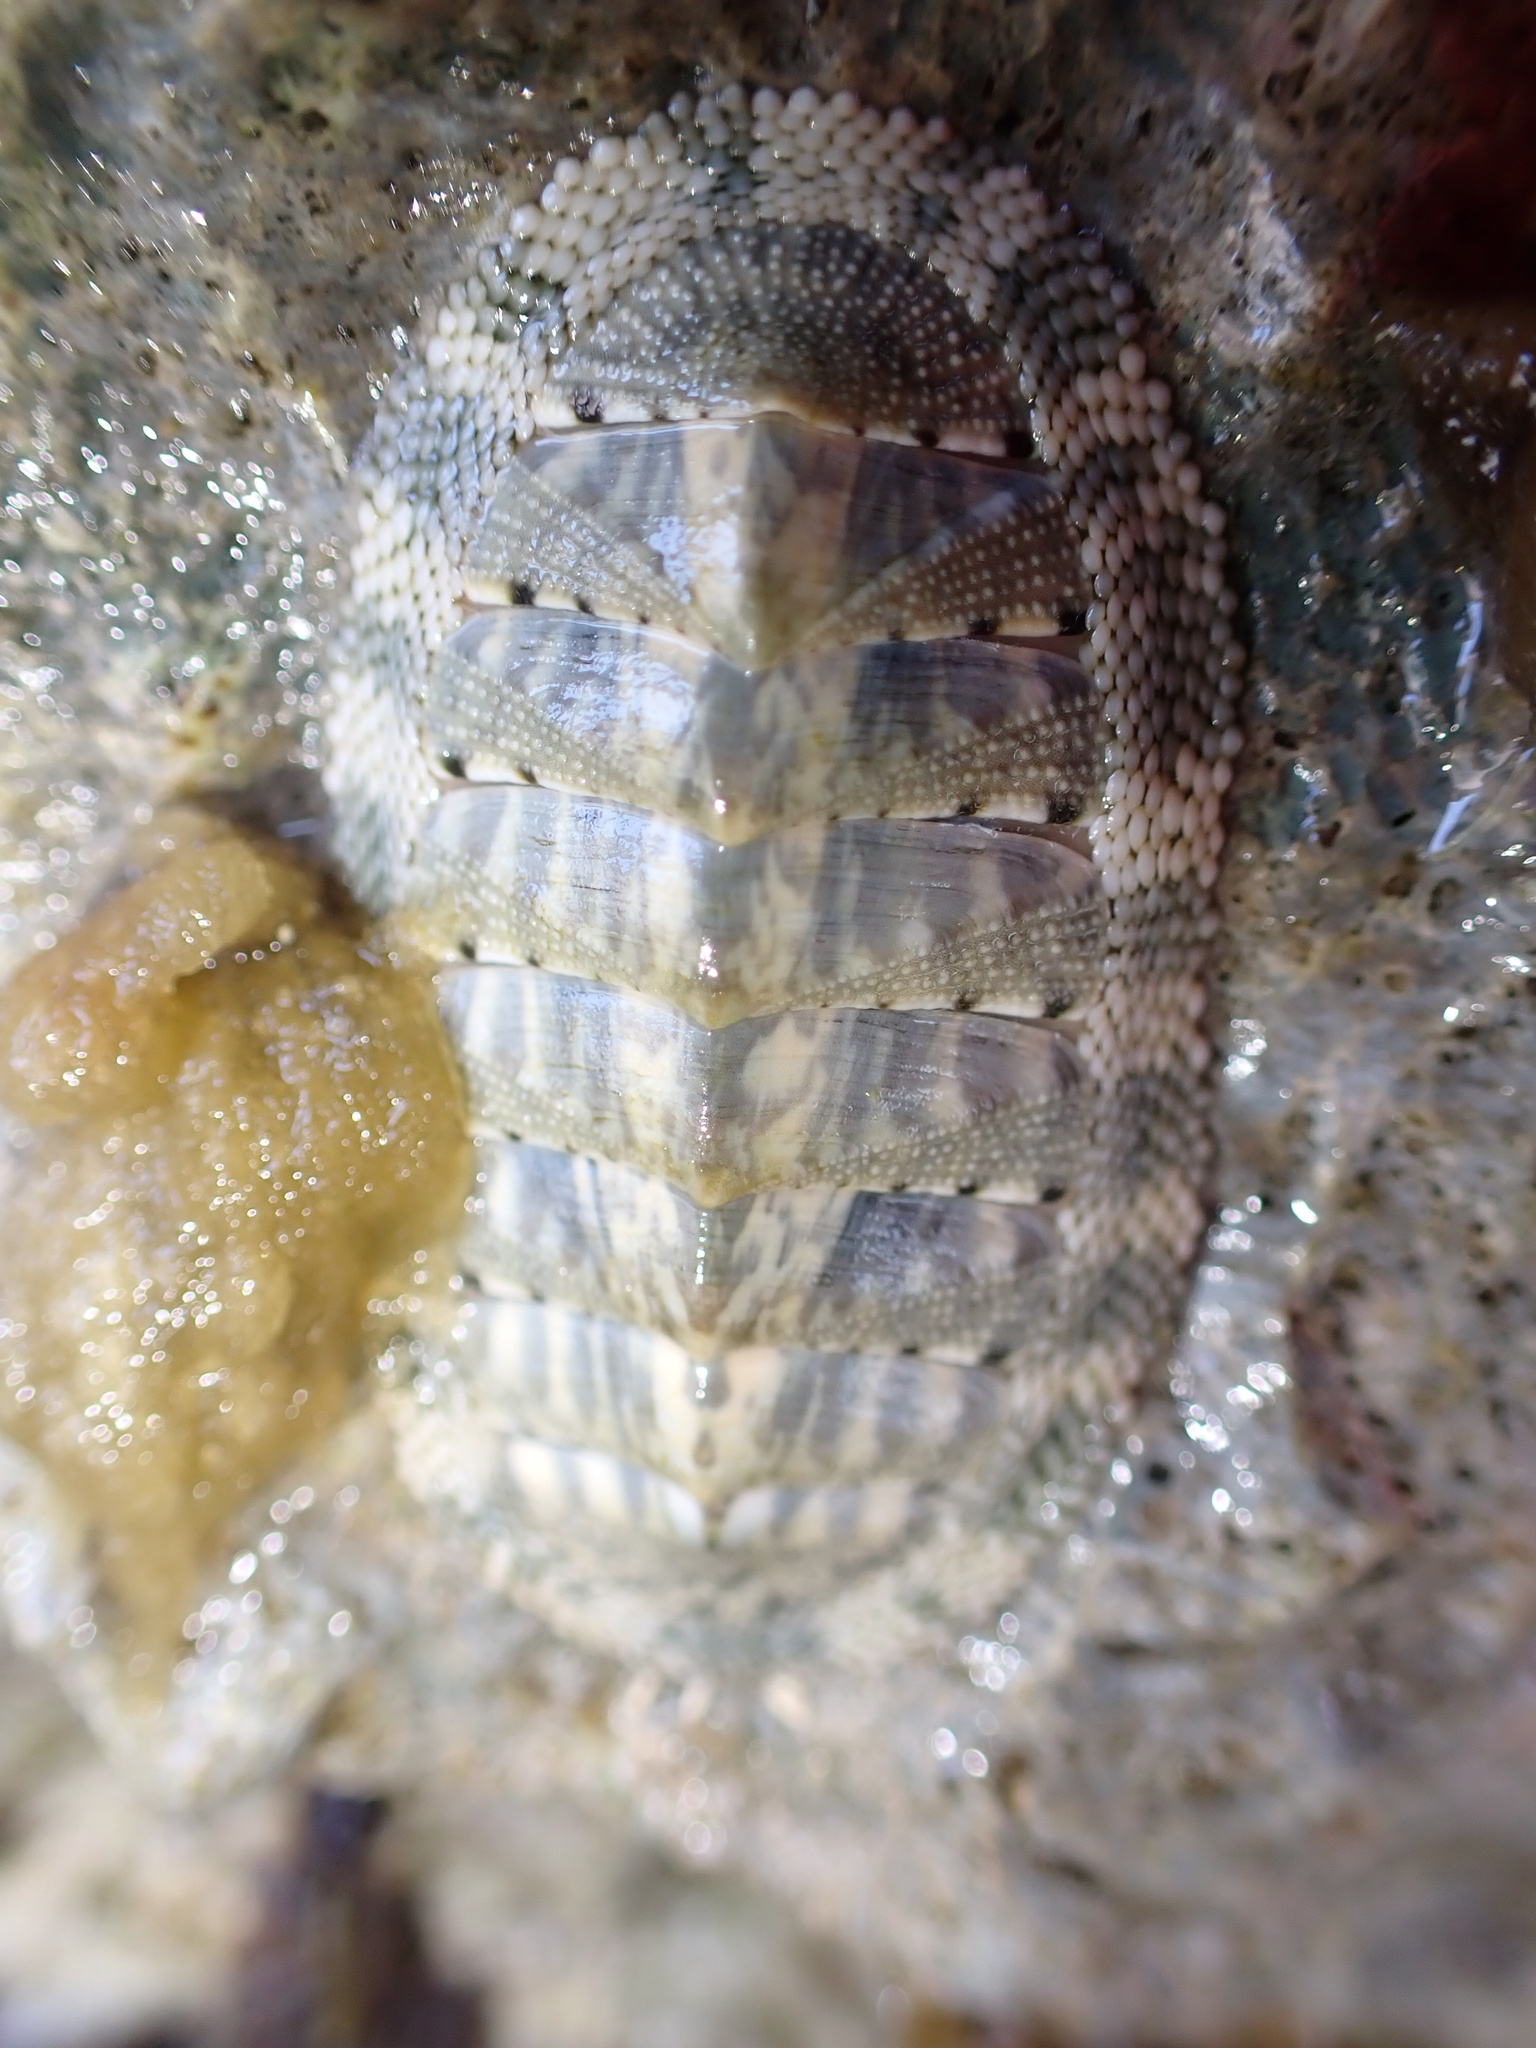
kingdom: Animalia
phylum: Mollusca
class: Polyplacophora
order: Chitonida
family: Chitonidae
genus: Chiton
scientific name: Chiton squamosus
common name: Squamose chiton
